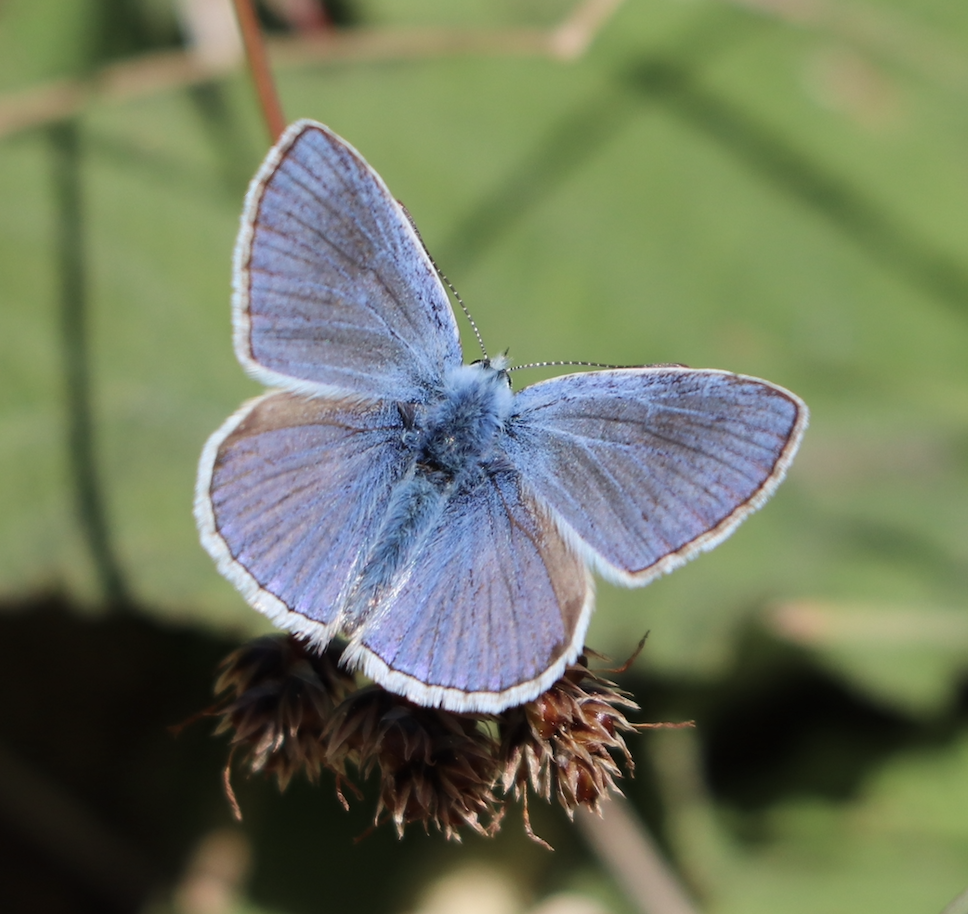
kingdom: Animalia
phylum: Arthropoda
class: Insecta
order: Lepidoptera
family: Lycaenidae
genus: Celastrina
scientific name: Celastrina argiolus
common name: Holly blue
